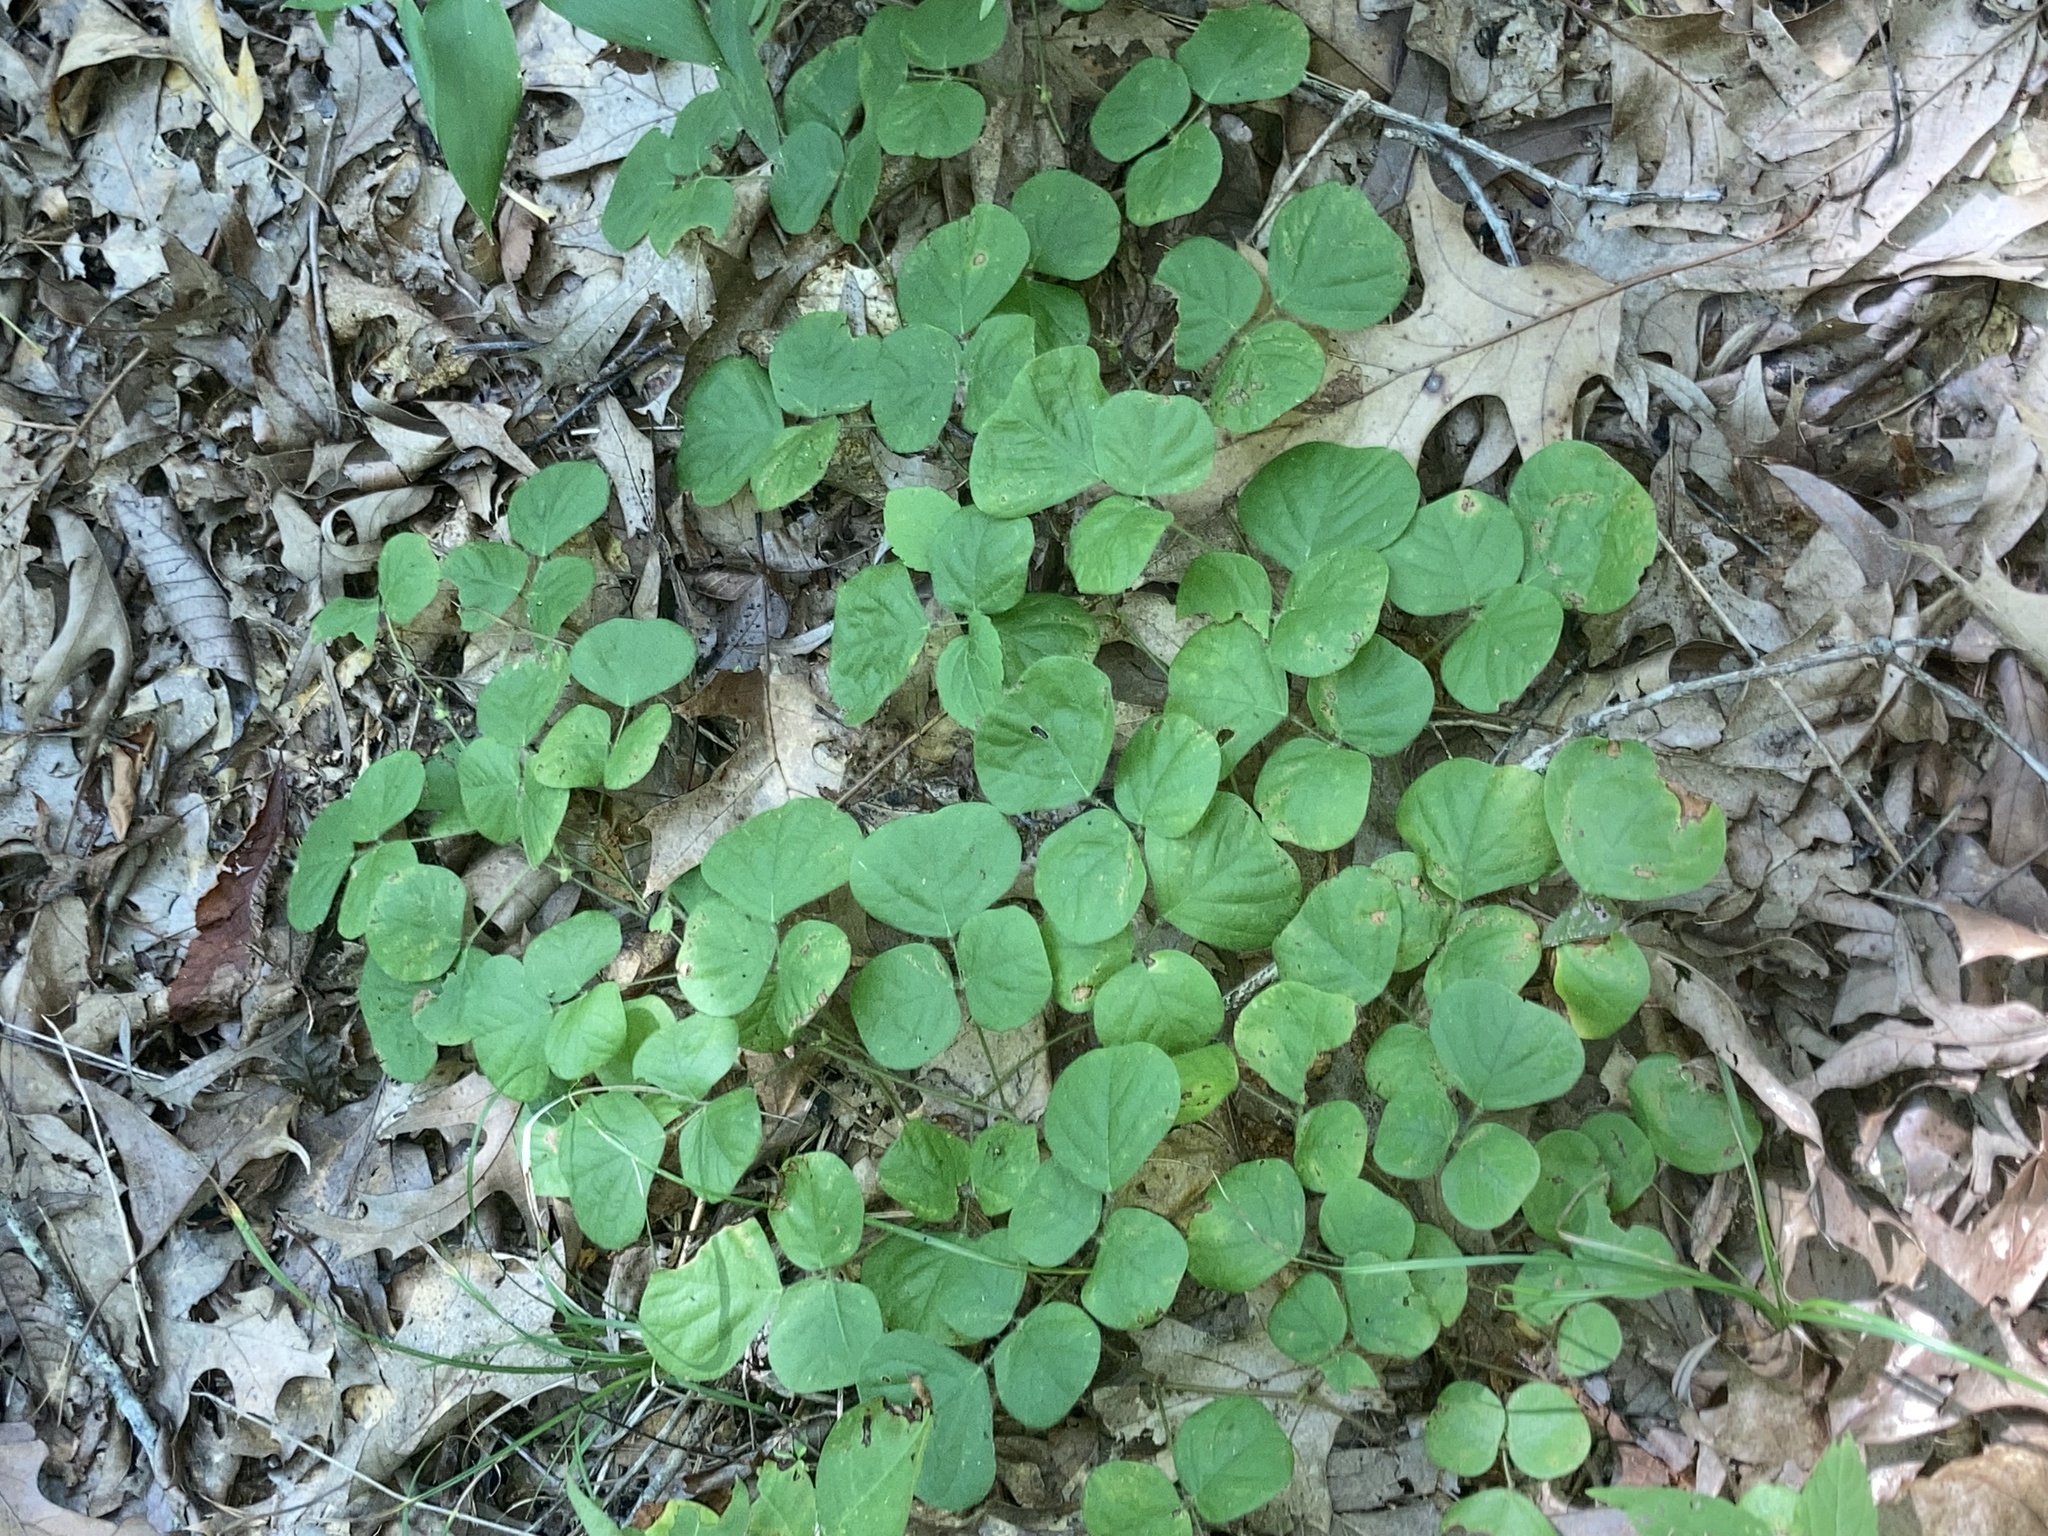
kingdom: Plantae
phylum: Tracheophyta
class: Magnoliopsida
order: Fabales
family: Fabaceae
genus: Desmodium
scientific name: Desmodium rotundifolium
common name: Dollarleaf
